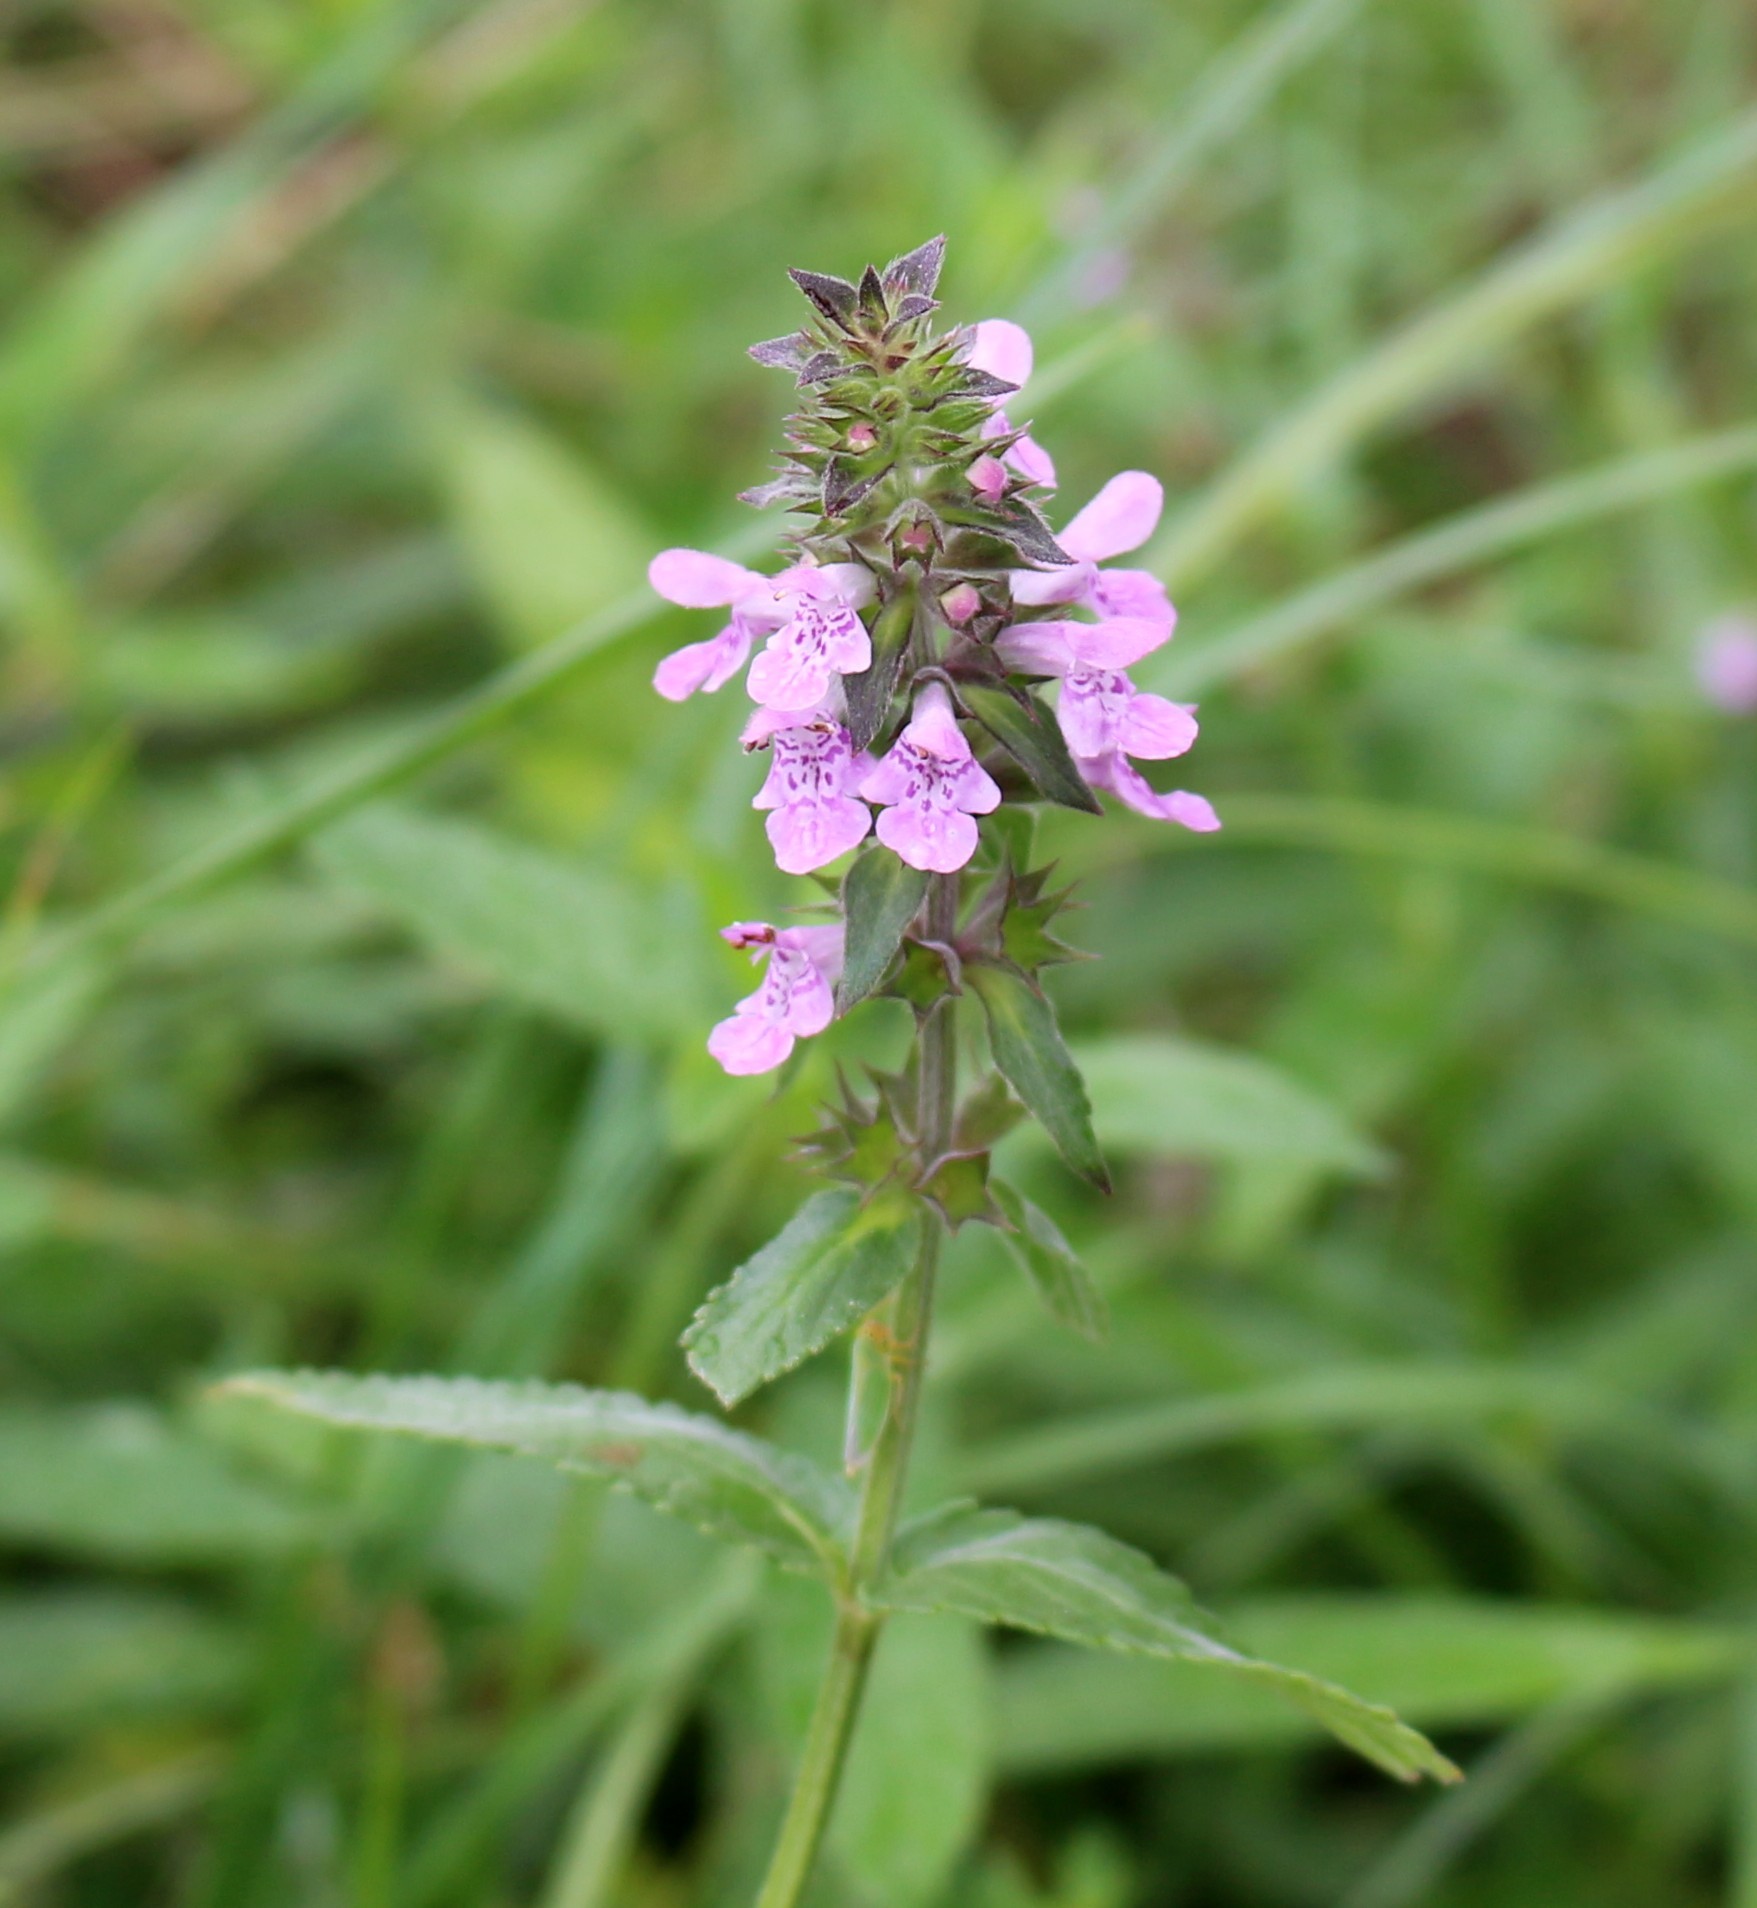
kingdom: Plantae
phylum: Tracheophyta
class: Magnoliopsida
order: Lamiales
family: Lamiaceae
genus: Stachys
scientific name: Stachys palustris
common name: Marsh woundwort
